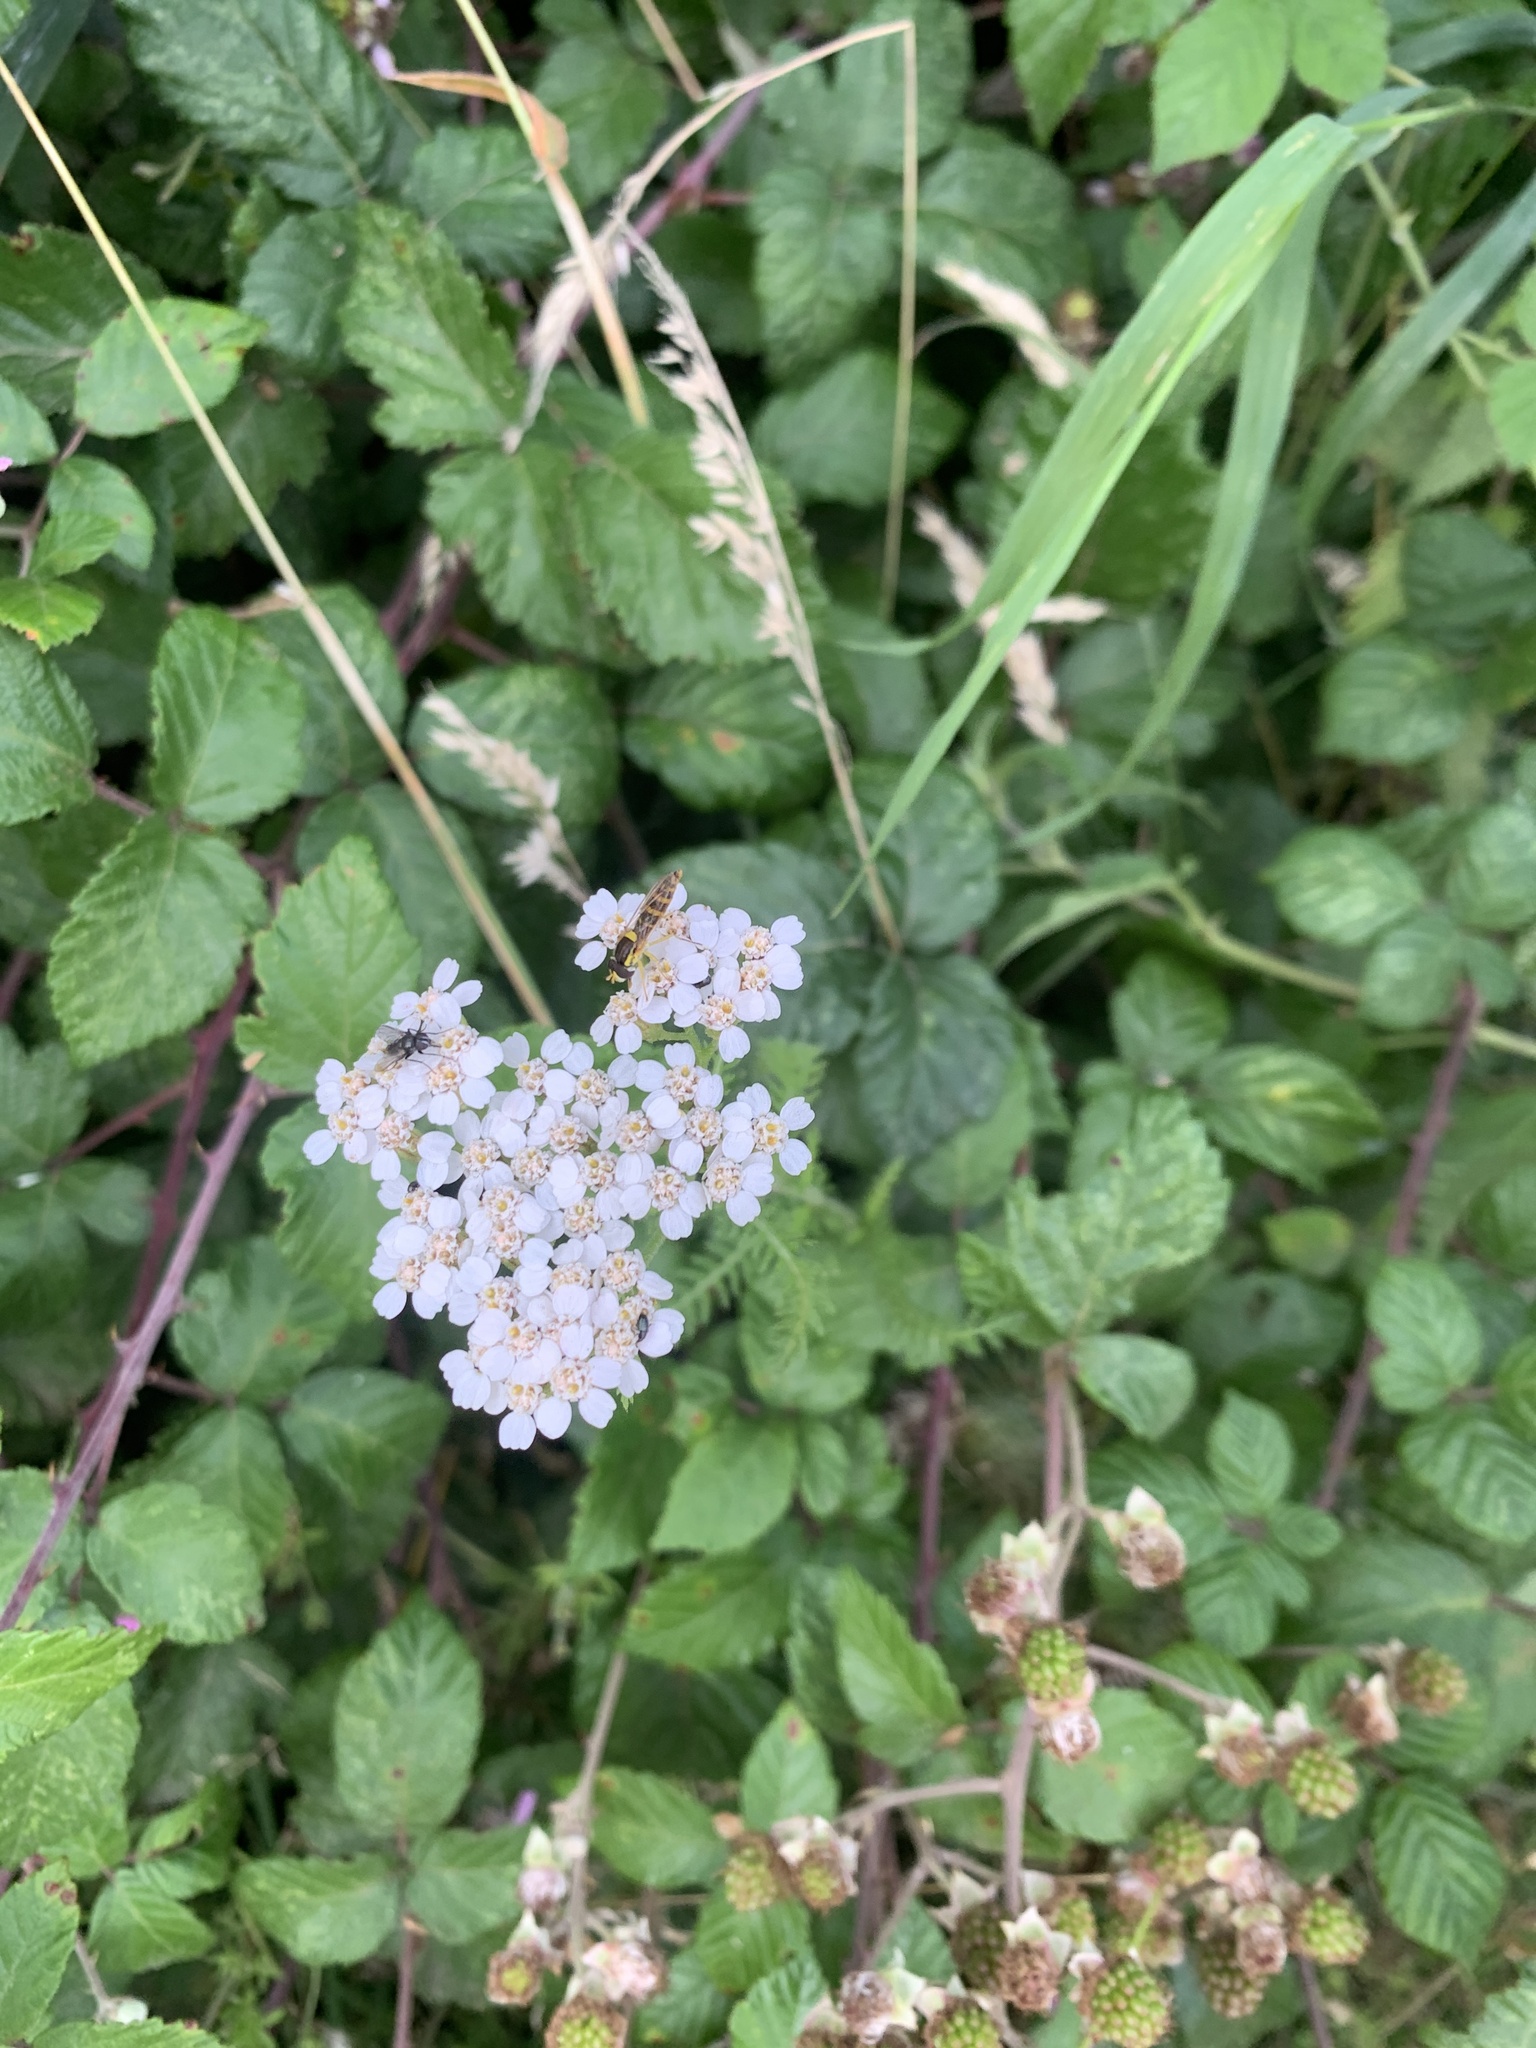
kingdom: Plantae
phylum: Tracheophyta
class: Magnoliopsida
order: Asterales
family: Asteraceae
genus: Achillea
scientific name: Achillea millefolium
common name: Yarrow
